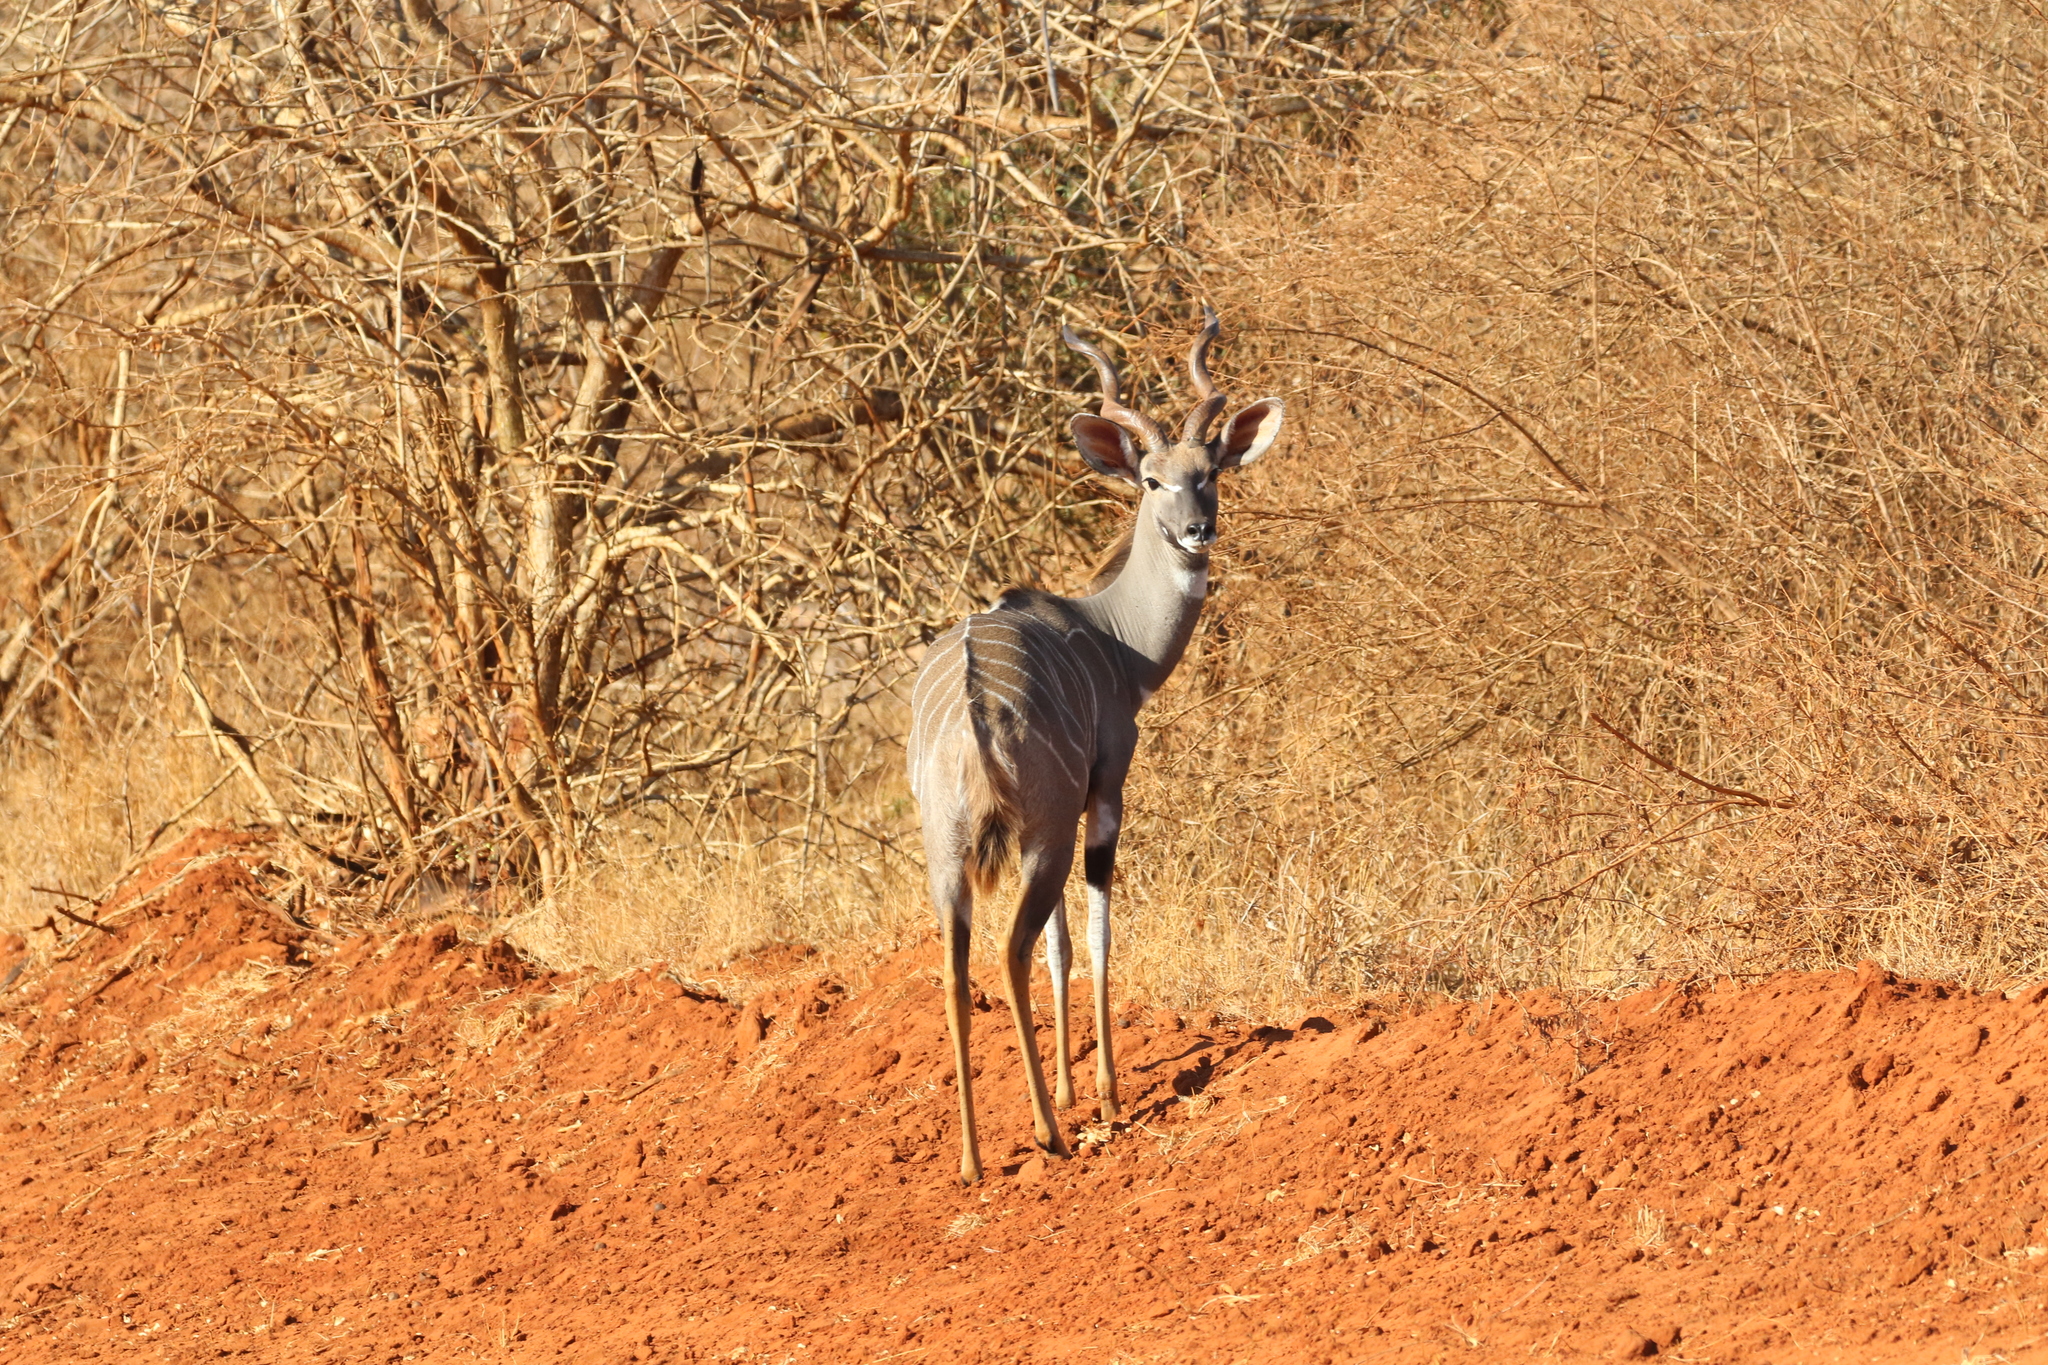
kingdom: Animalia
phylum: Chordata
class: Mammalia
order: Artiodactyla
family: Bovidae
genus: Tragelaphus
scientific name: Tragelaphus imberbis
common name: Lesser kudu
